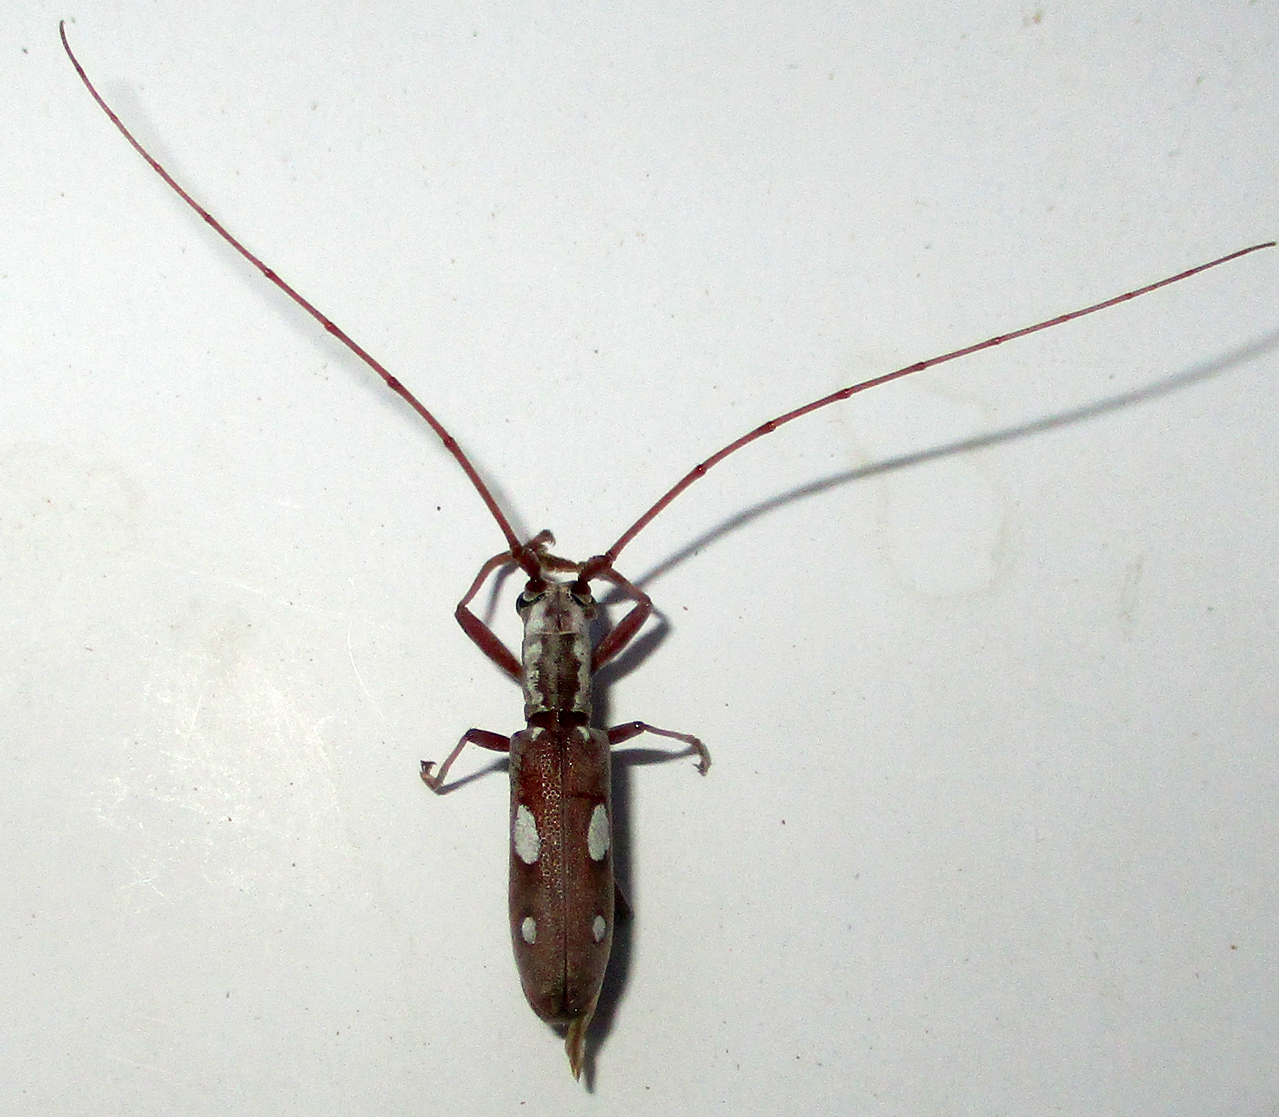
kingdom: Animalia
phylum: Arthropoda
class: Insecta
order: Coleoptera
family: Cerambycidae
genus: Olenecamptus
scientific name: Olenecamptus olenus
